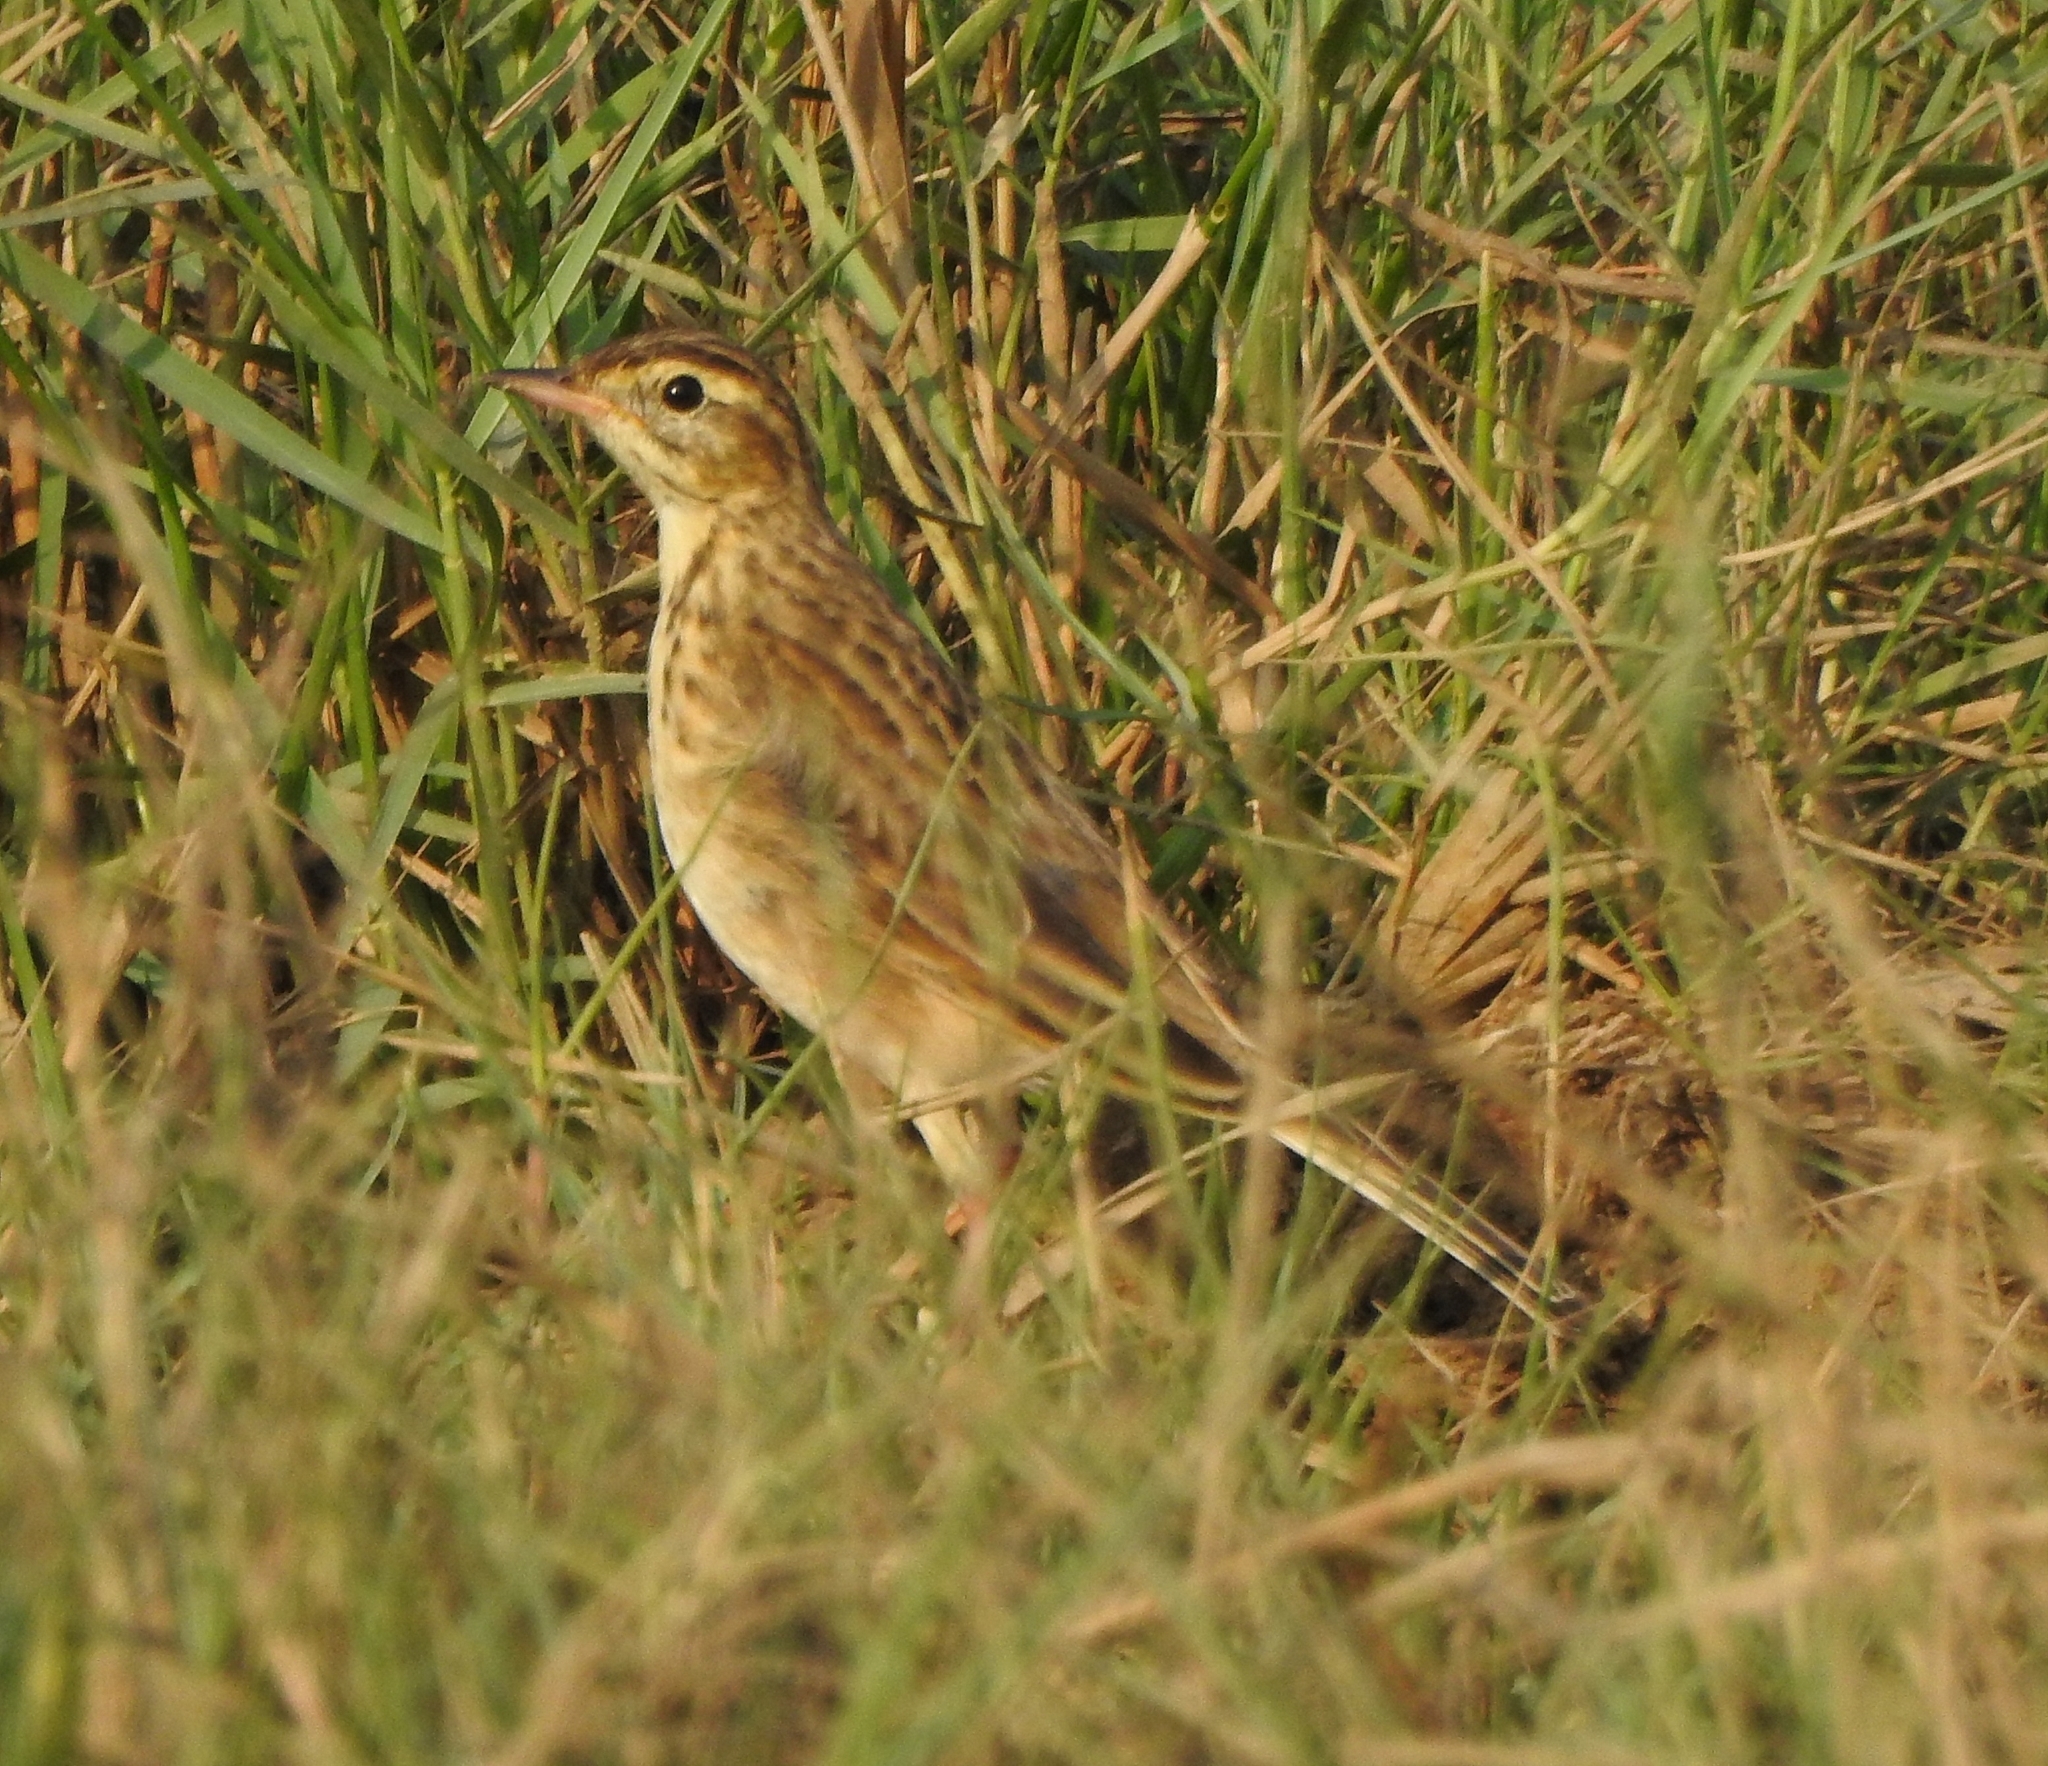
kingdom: Animalia
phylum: Chordata
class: Aves
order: Passeriformes
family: Motacillidae
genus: Anthus
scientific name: Anthus richardi
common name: Richard's pipit
